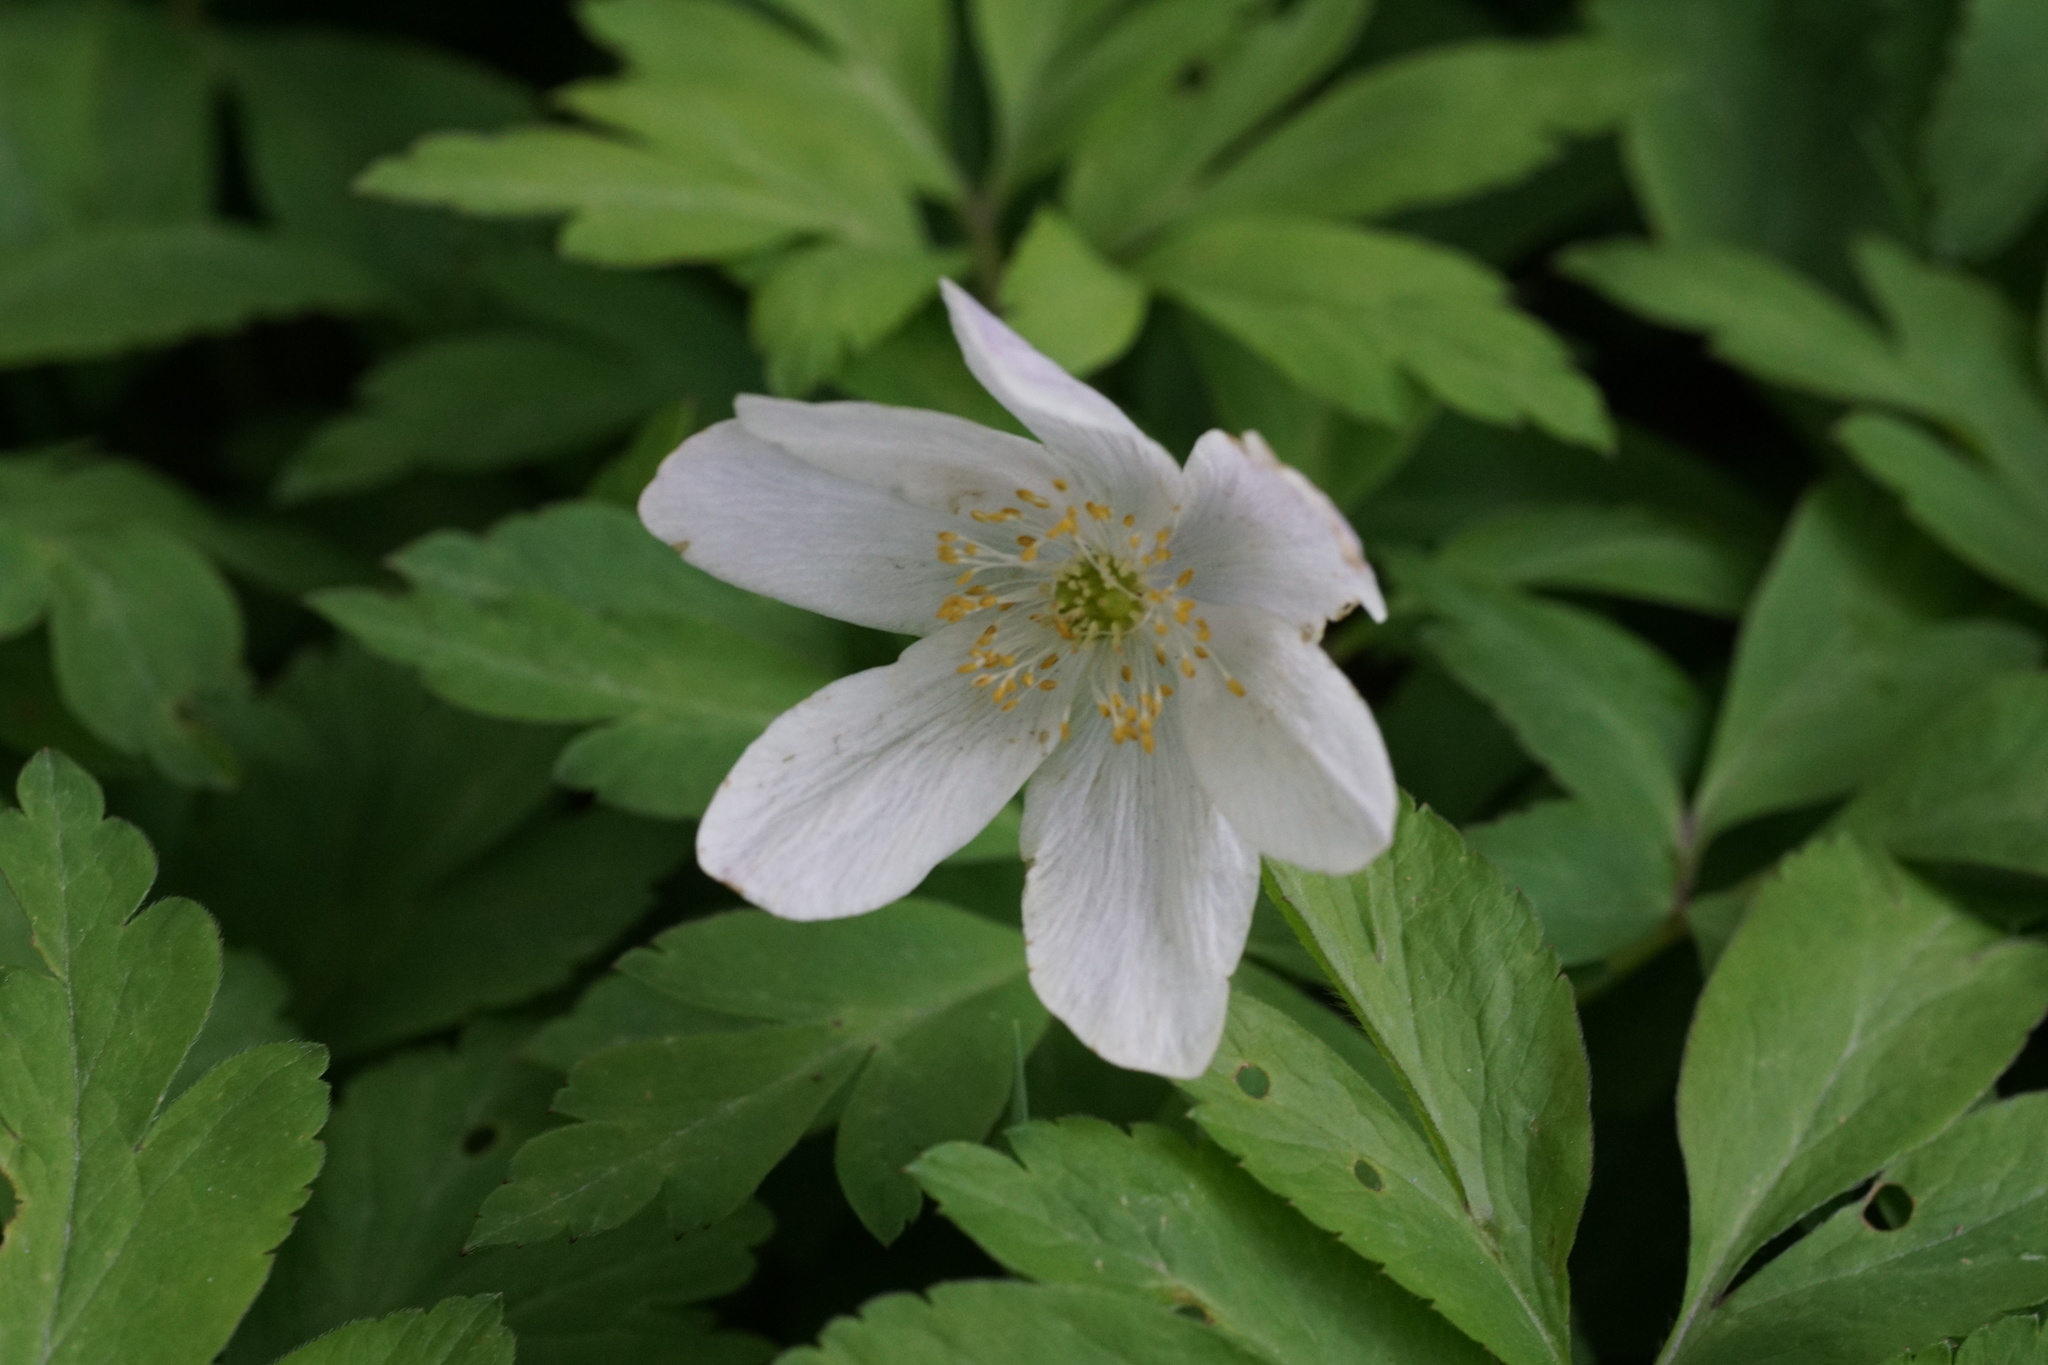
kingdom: Plantae
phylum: Tracheophyta
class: Magnoliopsida
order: Ranunculales
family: Ranunculaceae
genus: Anemone
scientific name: Anemone nemorosa
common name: Wood anemone
